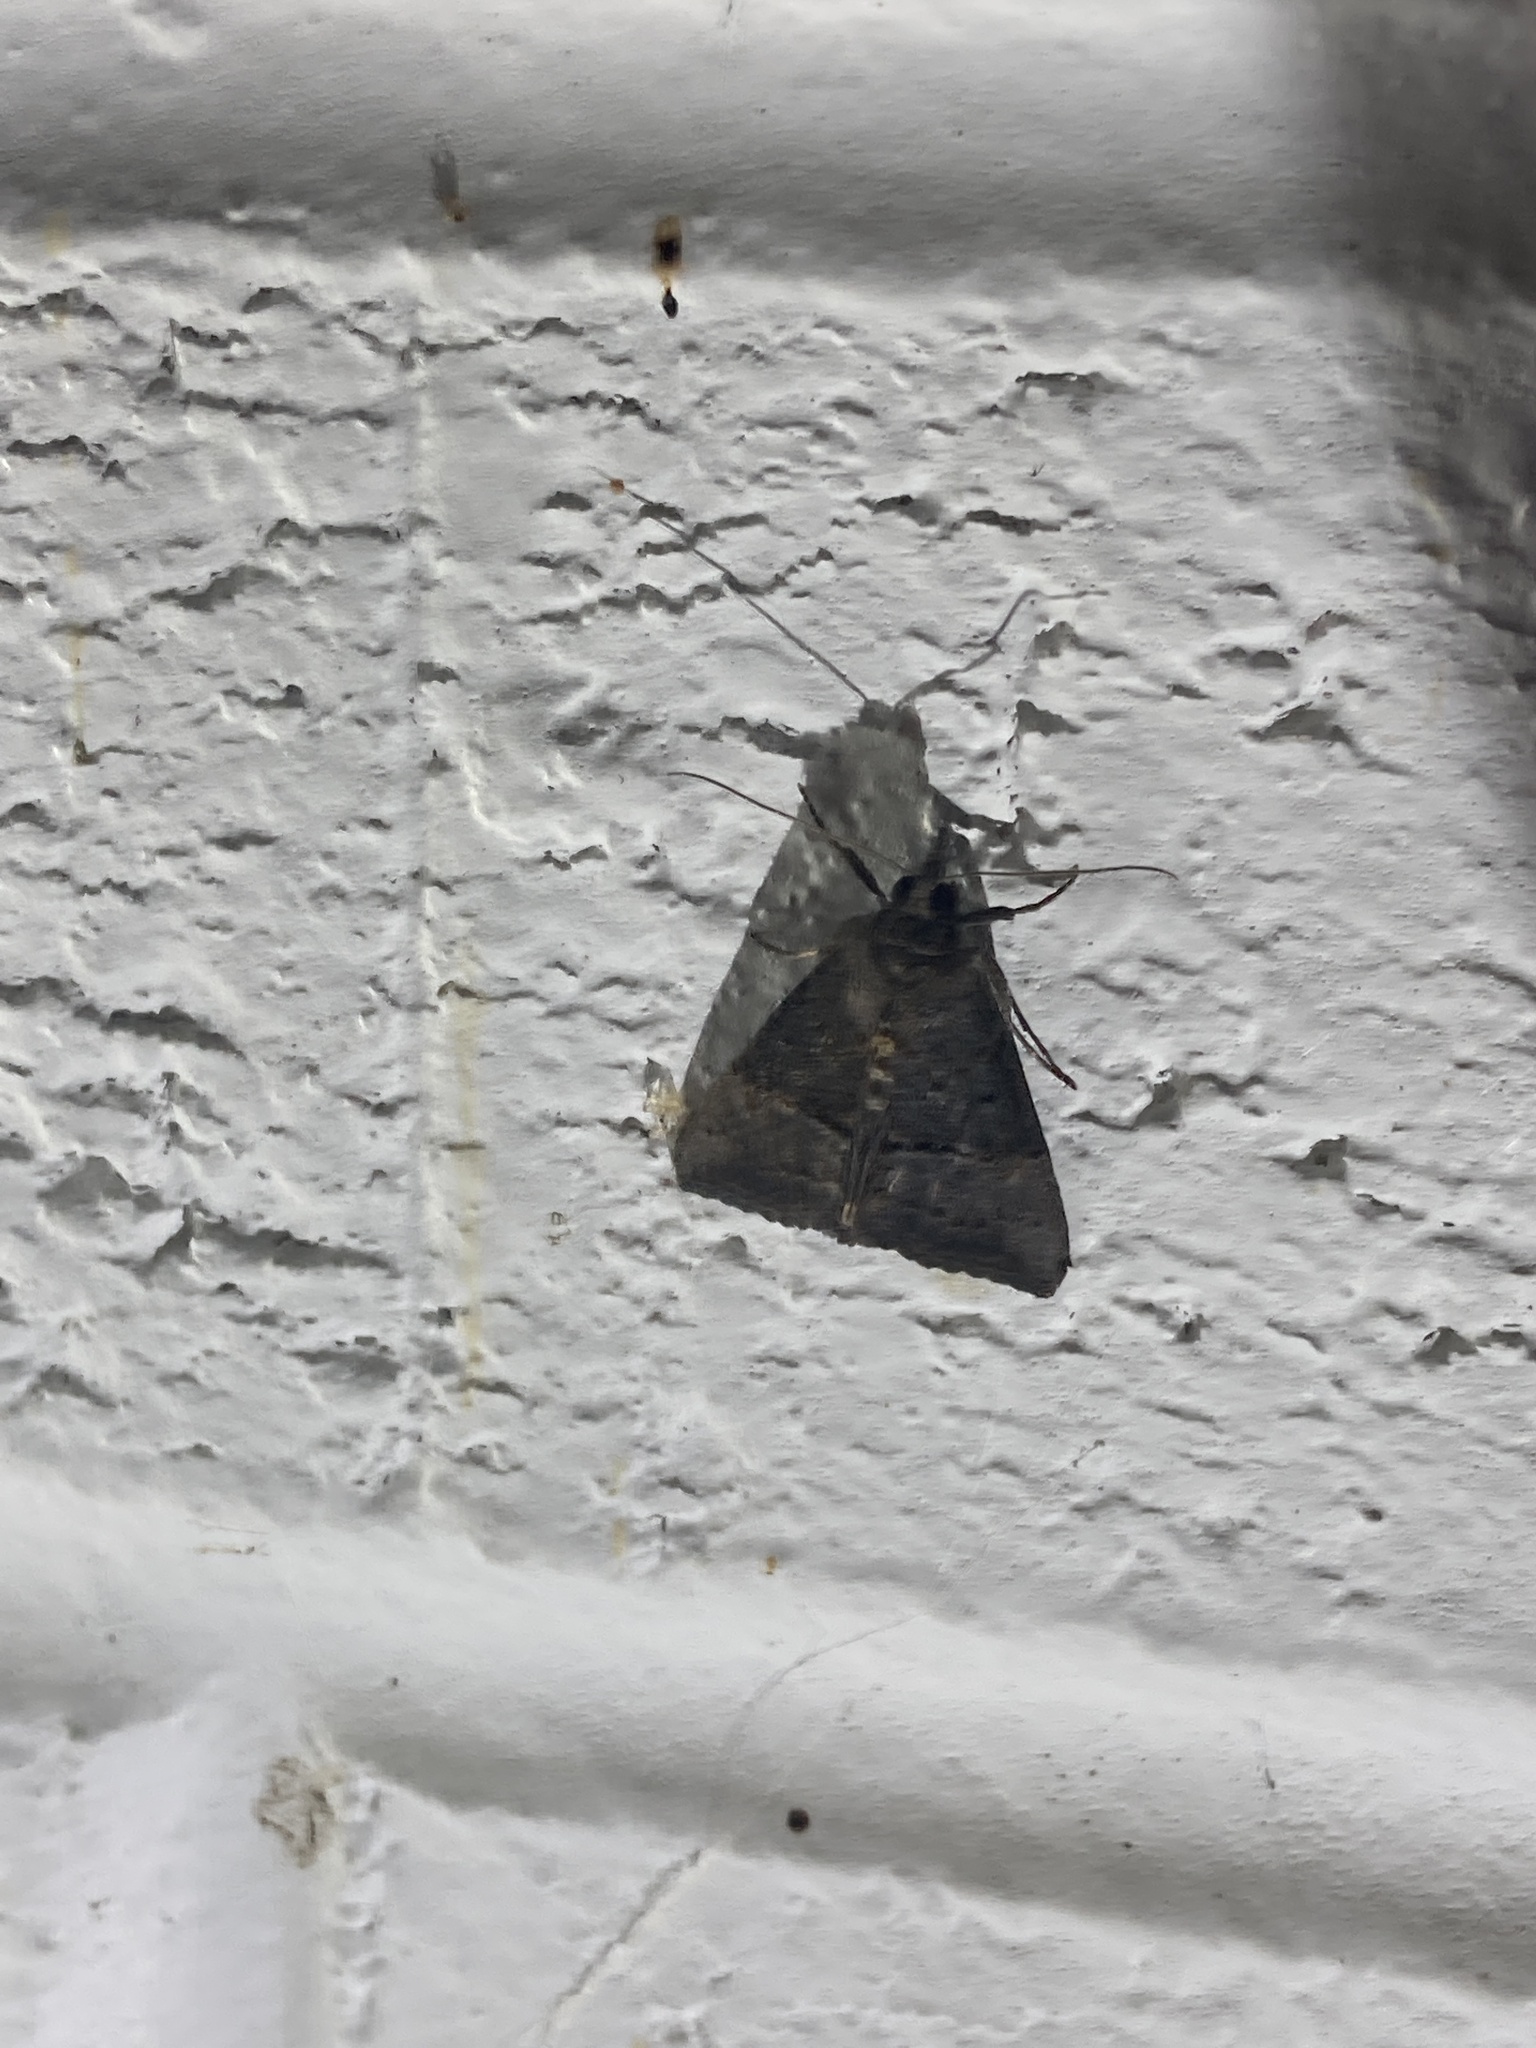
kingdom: Animalia
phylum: Arthropoda
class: Insecta
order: Lepidoptera
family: Erebidae
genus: Hypena
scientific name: Hypena scabra
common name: Green cloverworm
